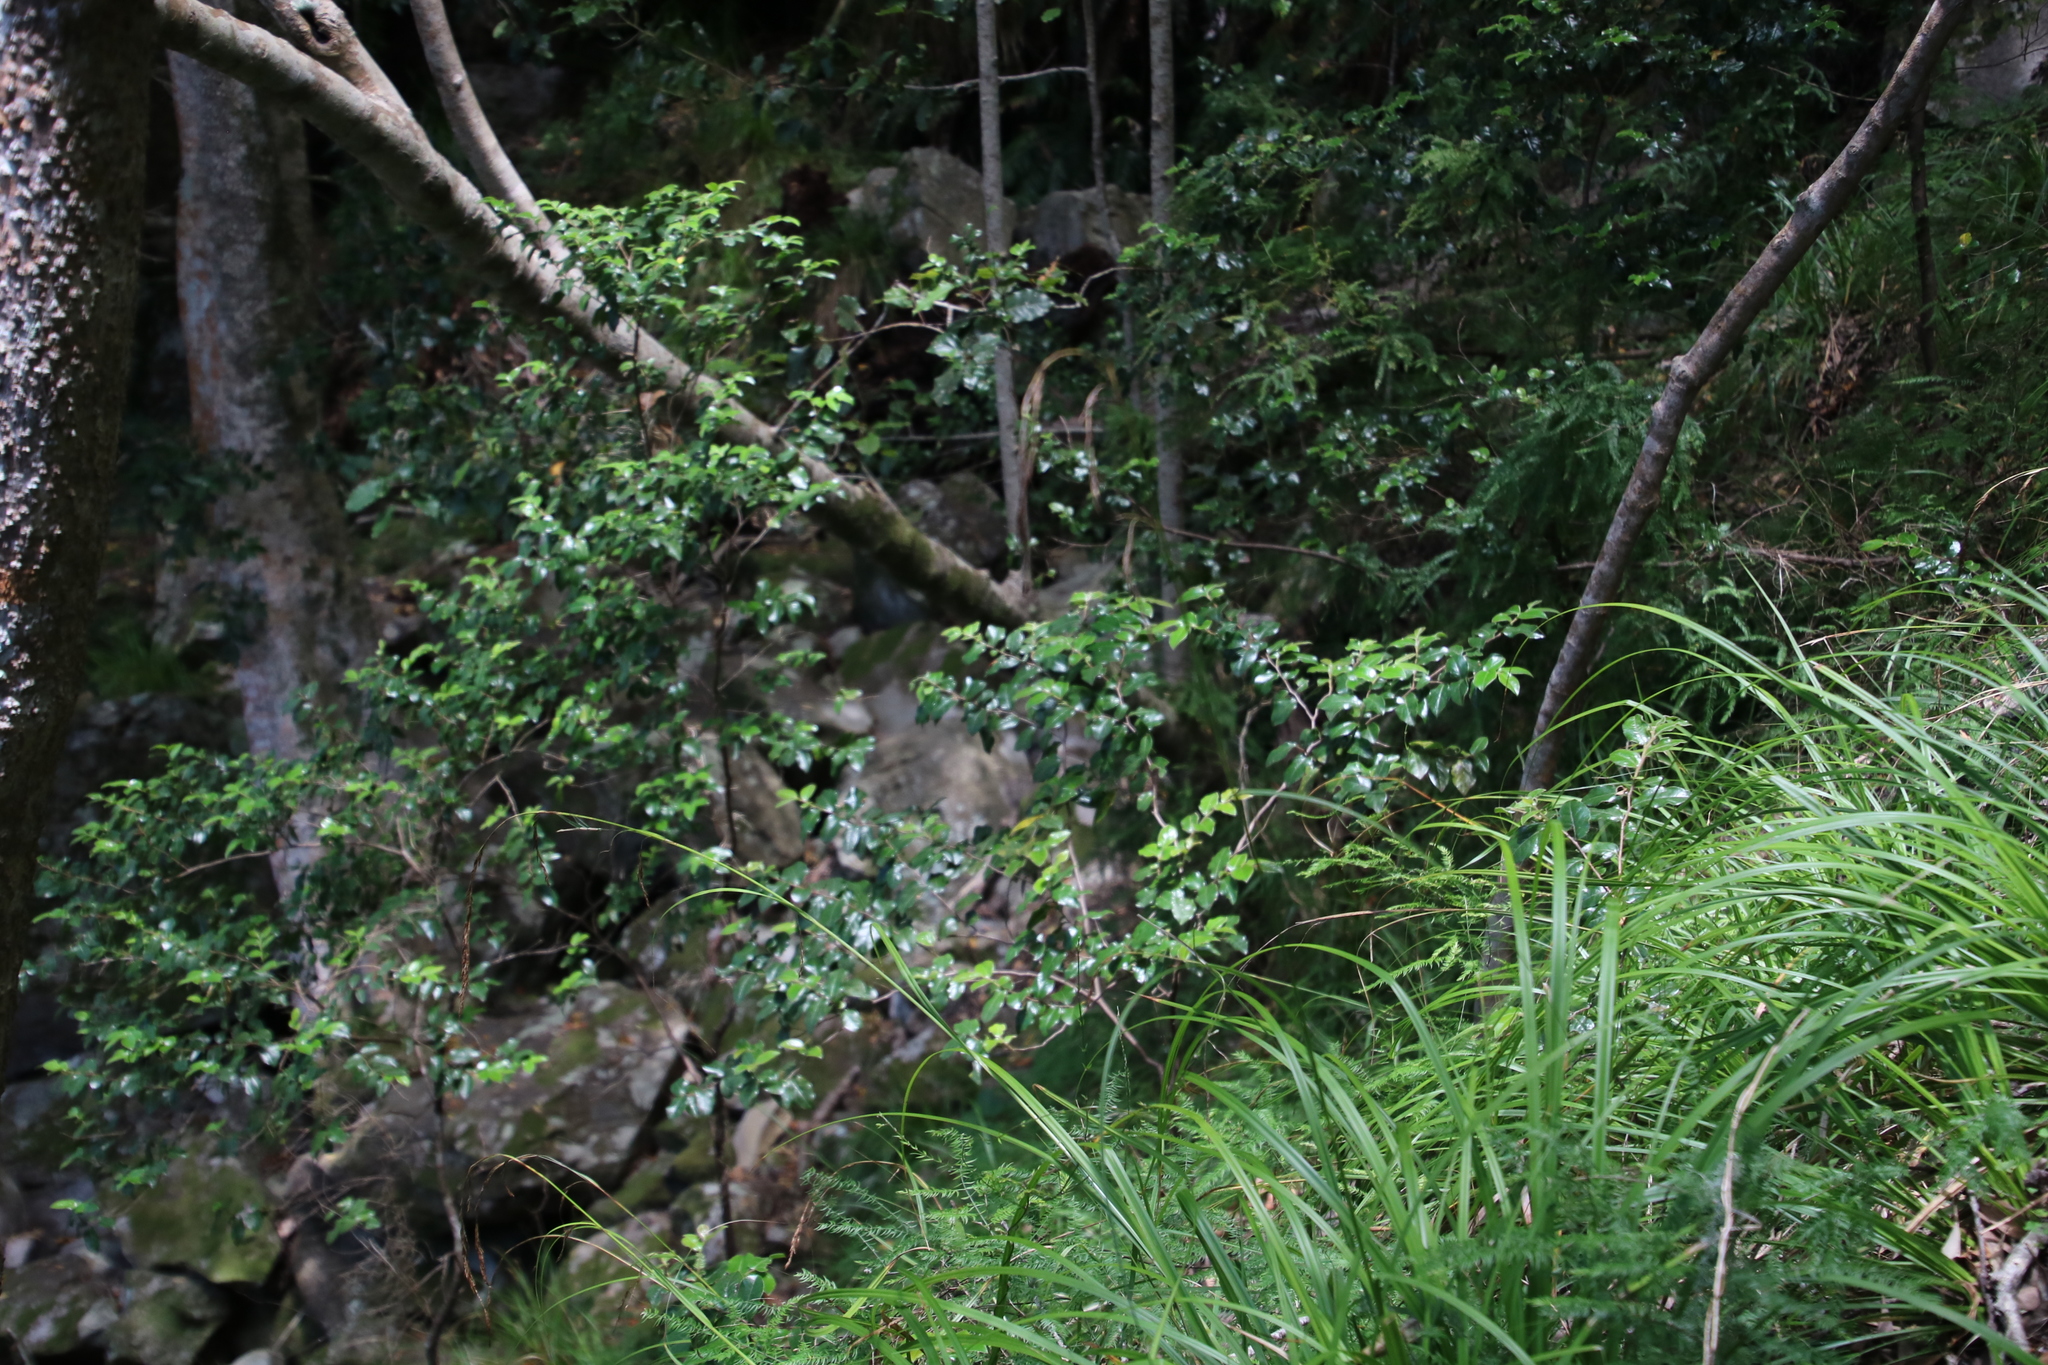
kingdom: Plantae
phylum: Tracheophyta
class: Magnoliopsida
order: Ericales
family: Ebenaceae
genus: Diospyros
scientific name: Diospyros whyteana
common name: Bladder-nut
